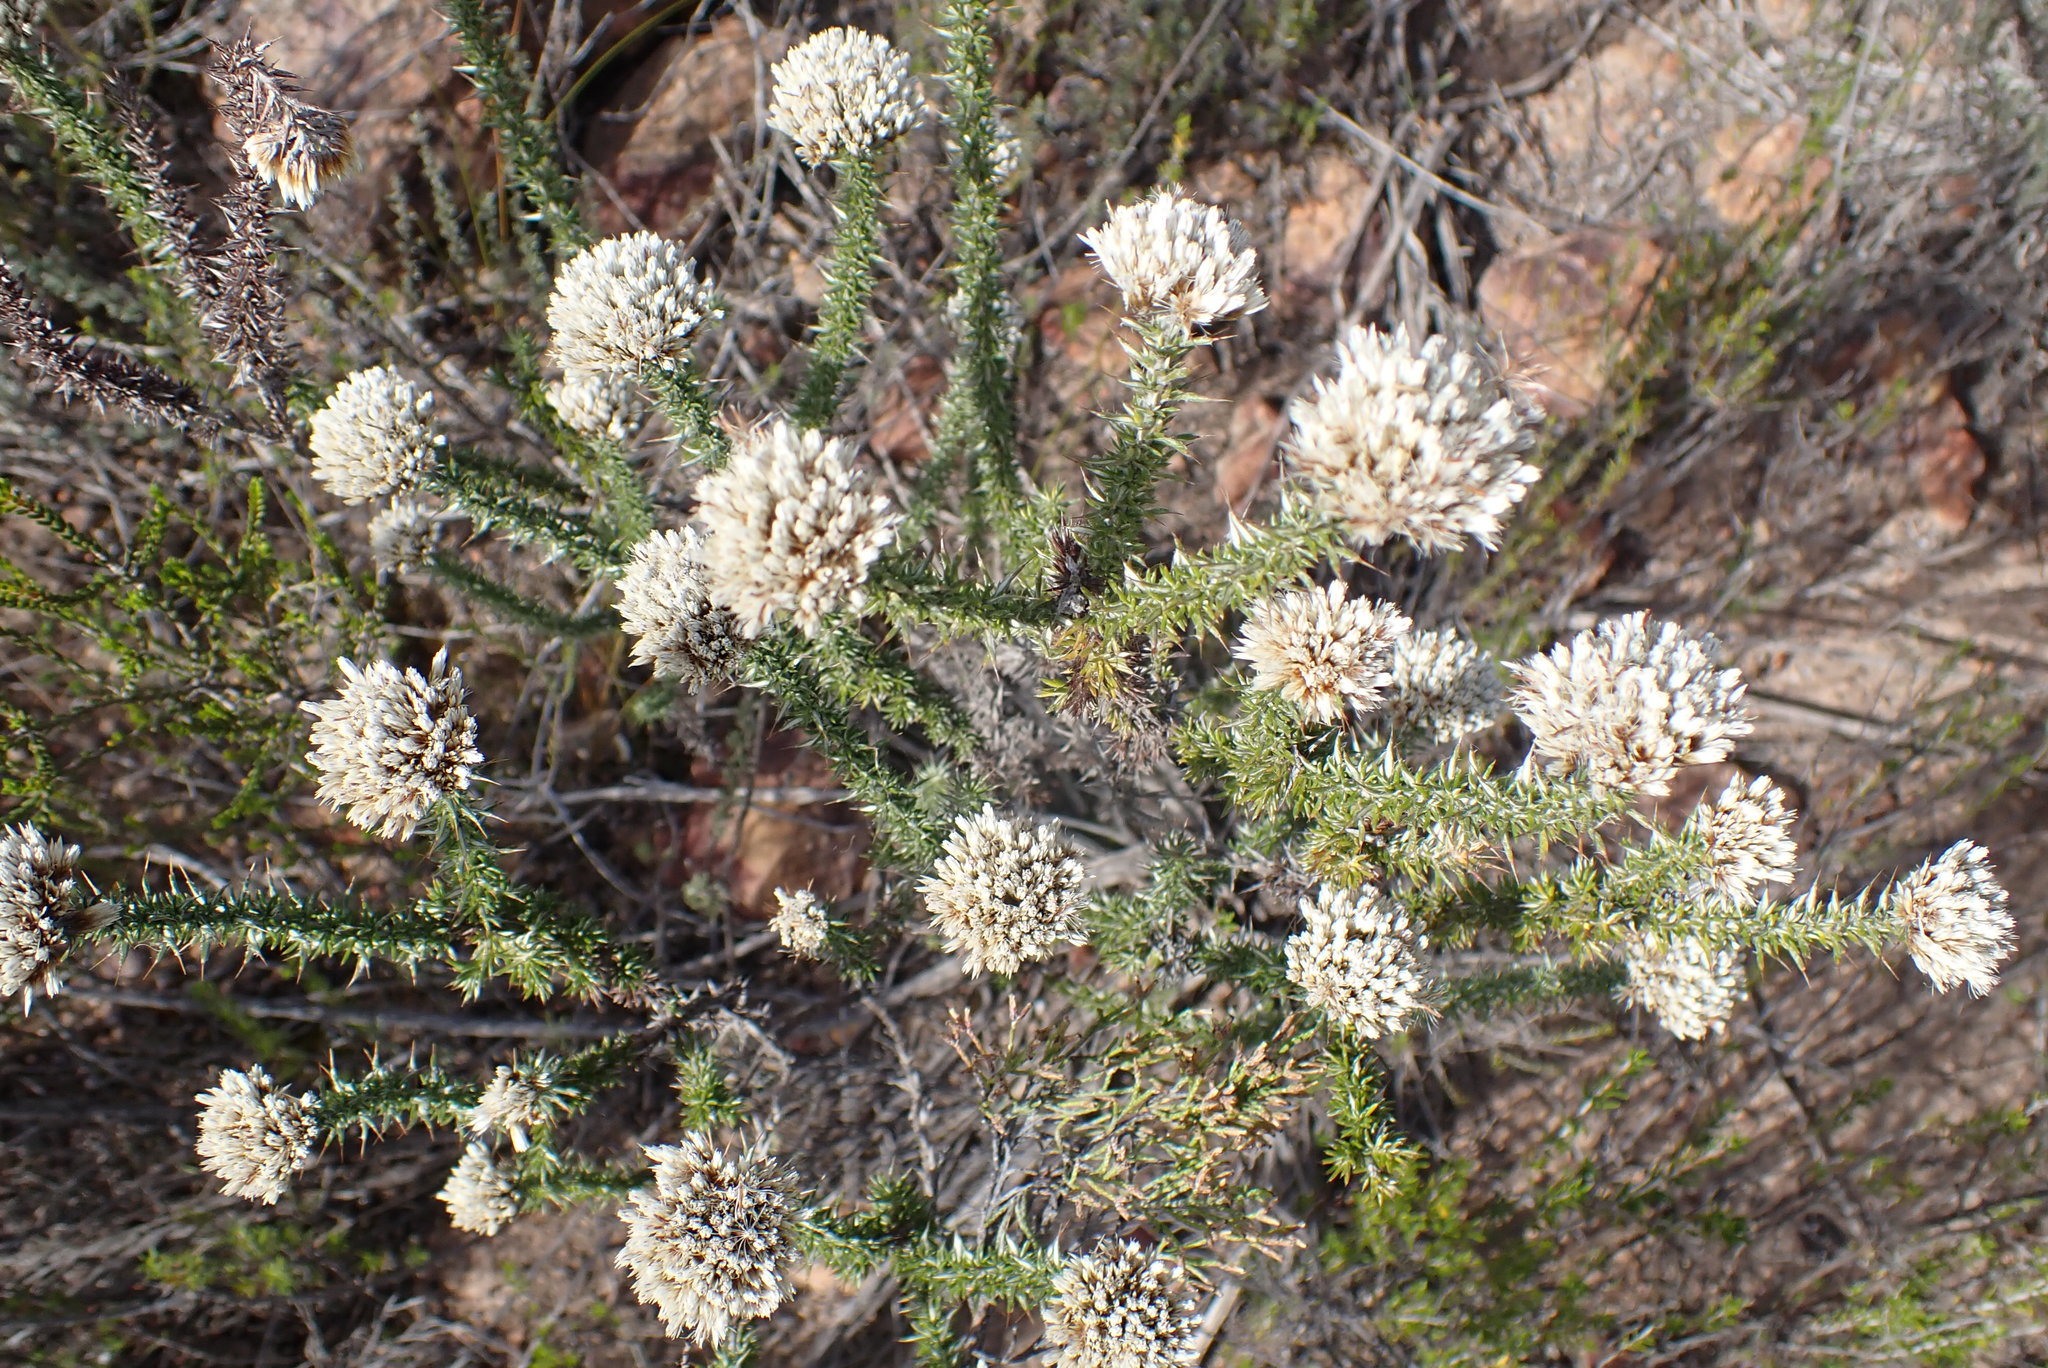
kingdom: Plantae
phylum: Tracheophyta
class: Magnoliopsida
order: Asterales
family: Asteraceae
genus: Metalasia
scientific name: Metalasia acuta
